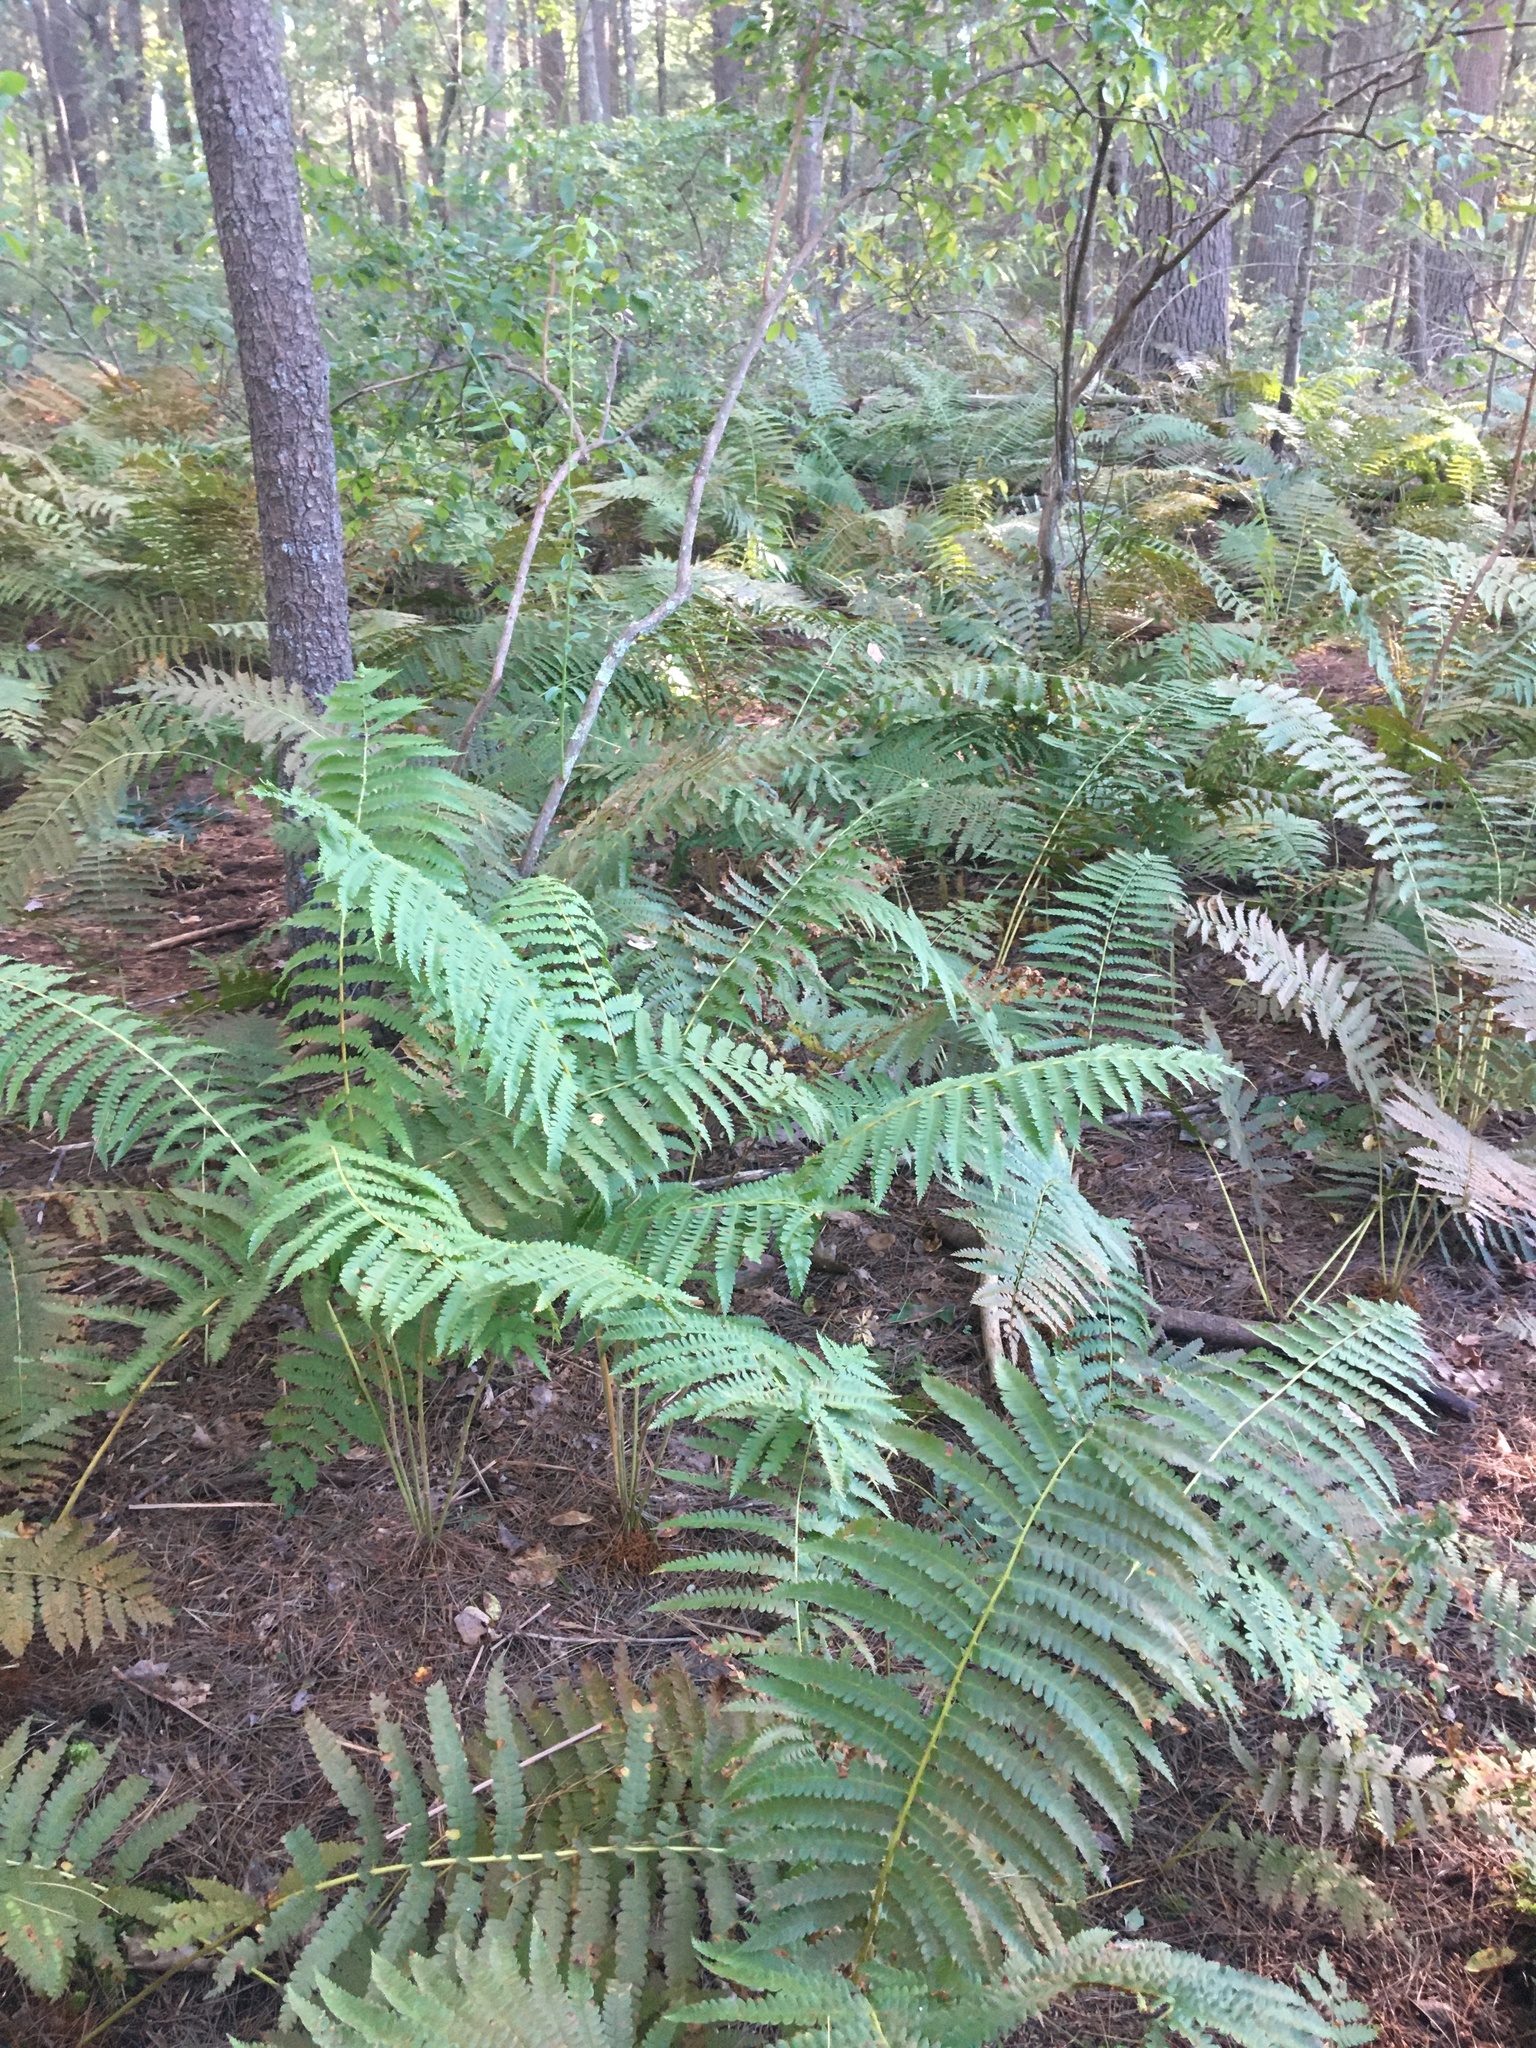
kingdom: Plantae
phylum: Tracheophyta
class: Polypodiopsida
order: Osmundales
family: Osmundaceae
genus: Osmundastrum
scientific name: Osmundastrum cinnamomeum
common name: Cinnamon fern
